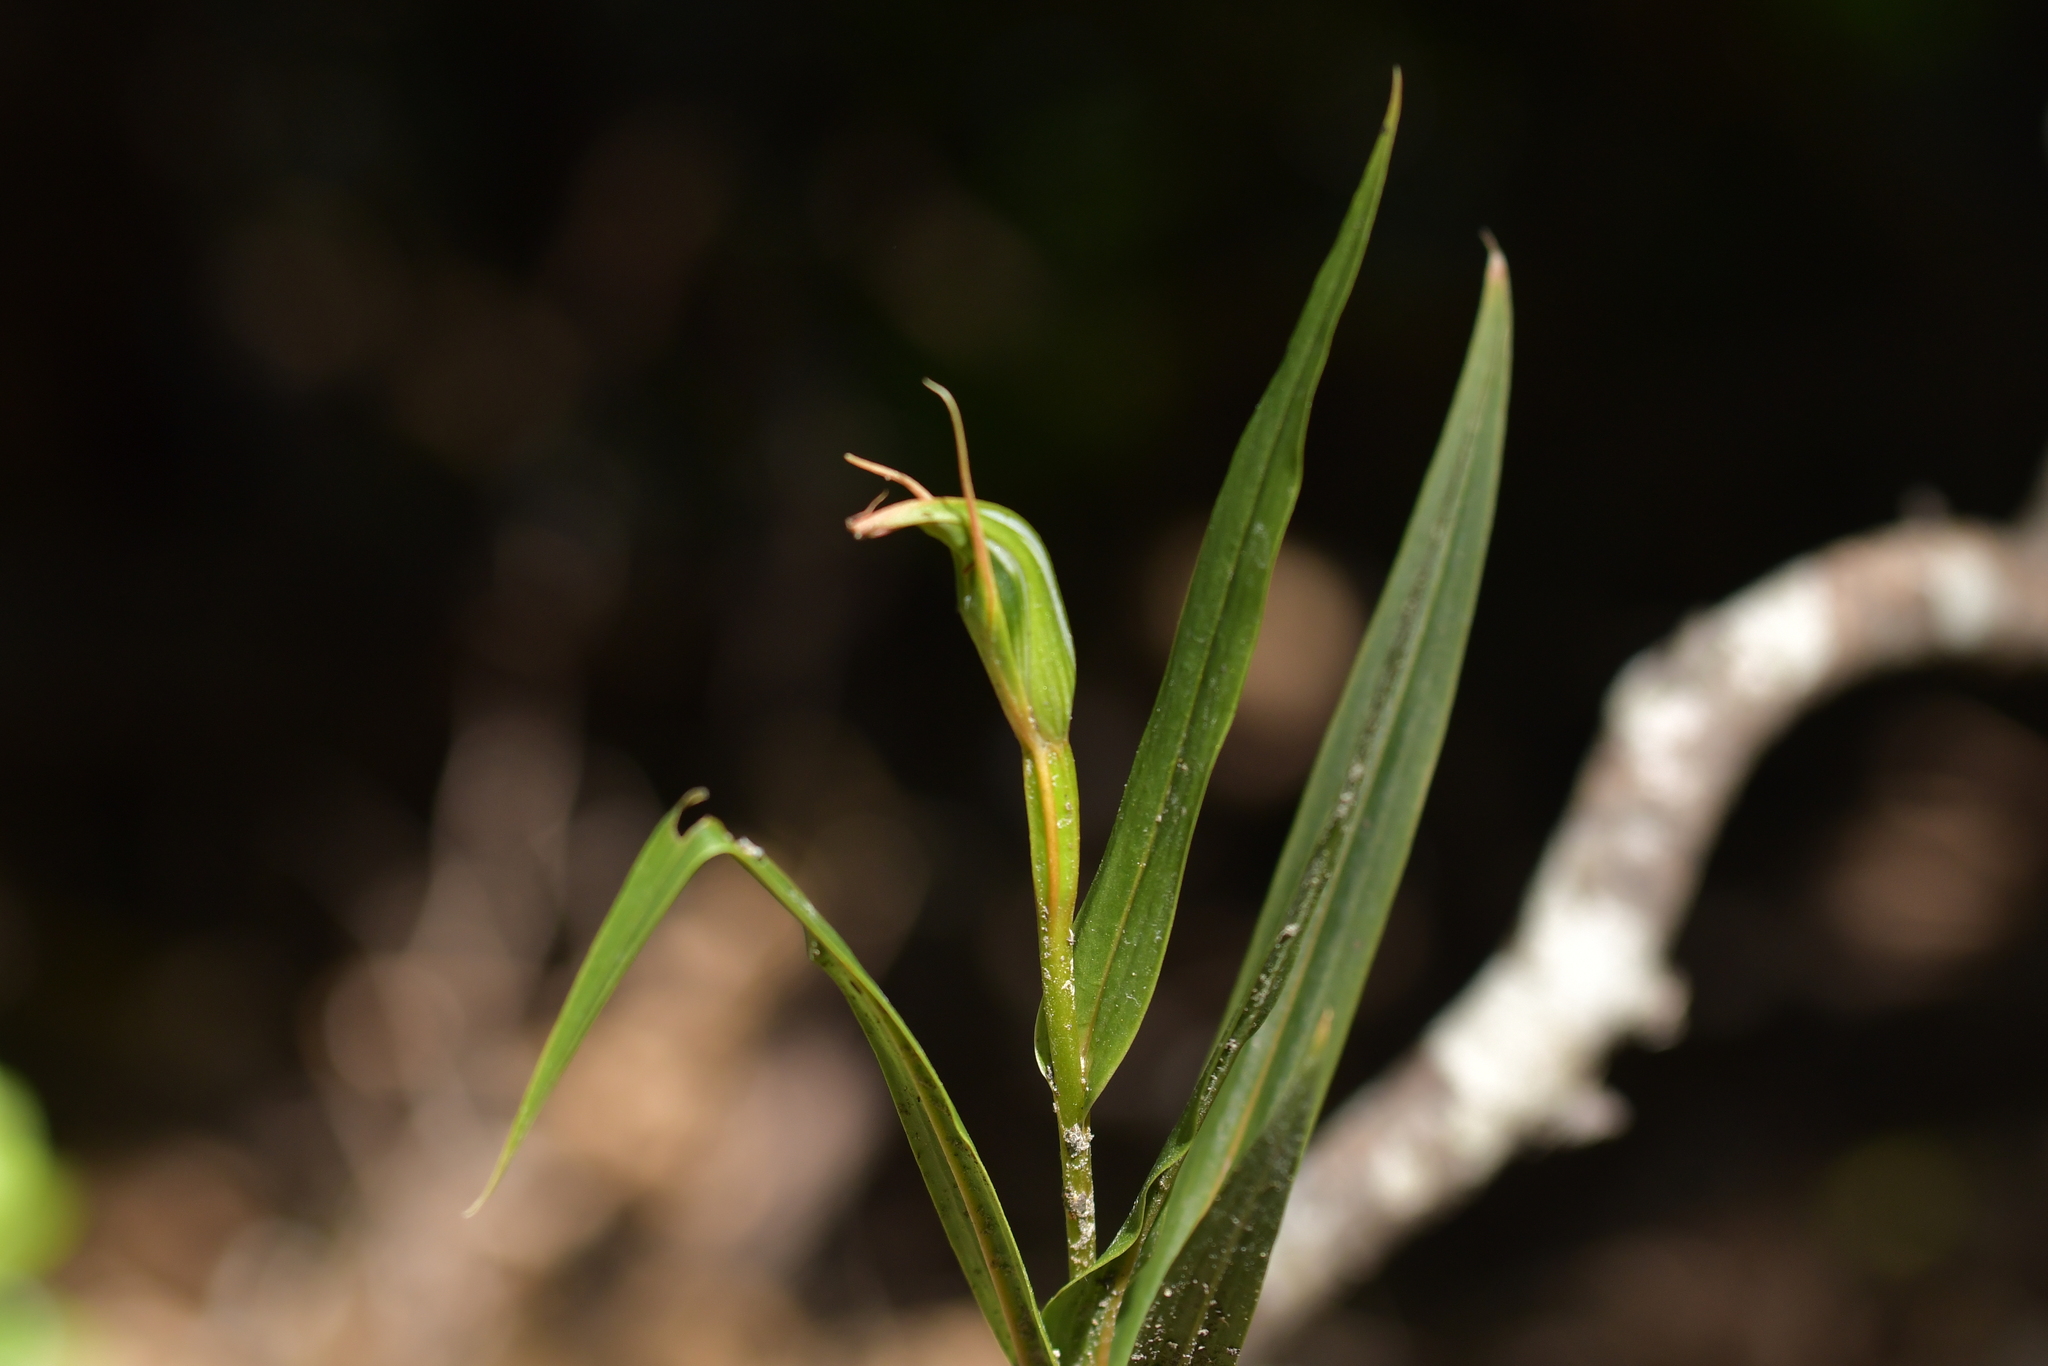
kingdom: Plantae
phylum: Tracheophyta
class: Liliopsida
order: Asparagales
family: Orchidaceae
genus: Pterostylis
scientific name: Pterostylis cardiostigma
